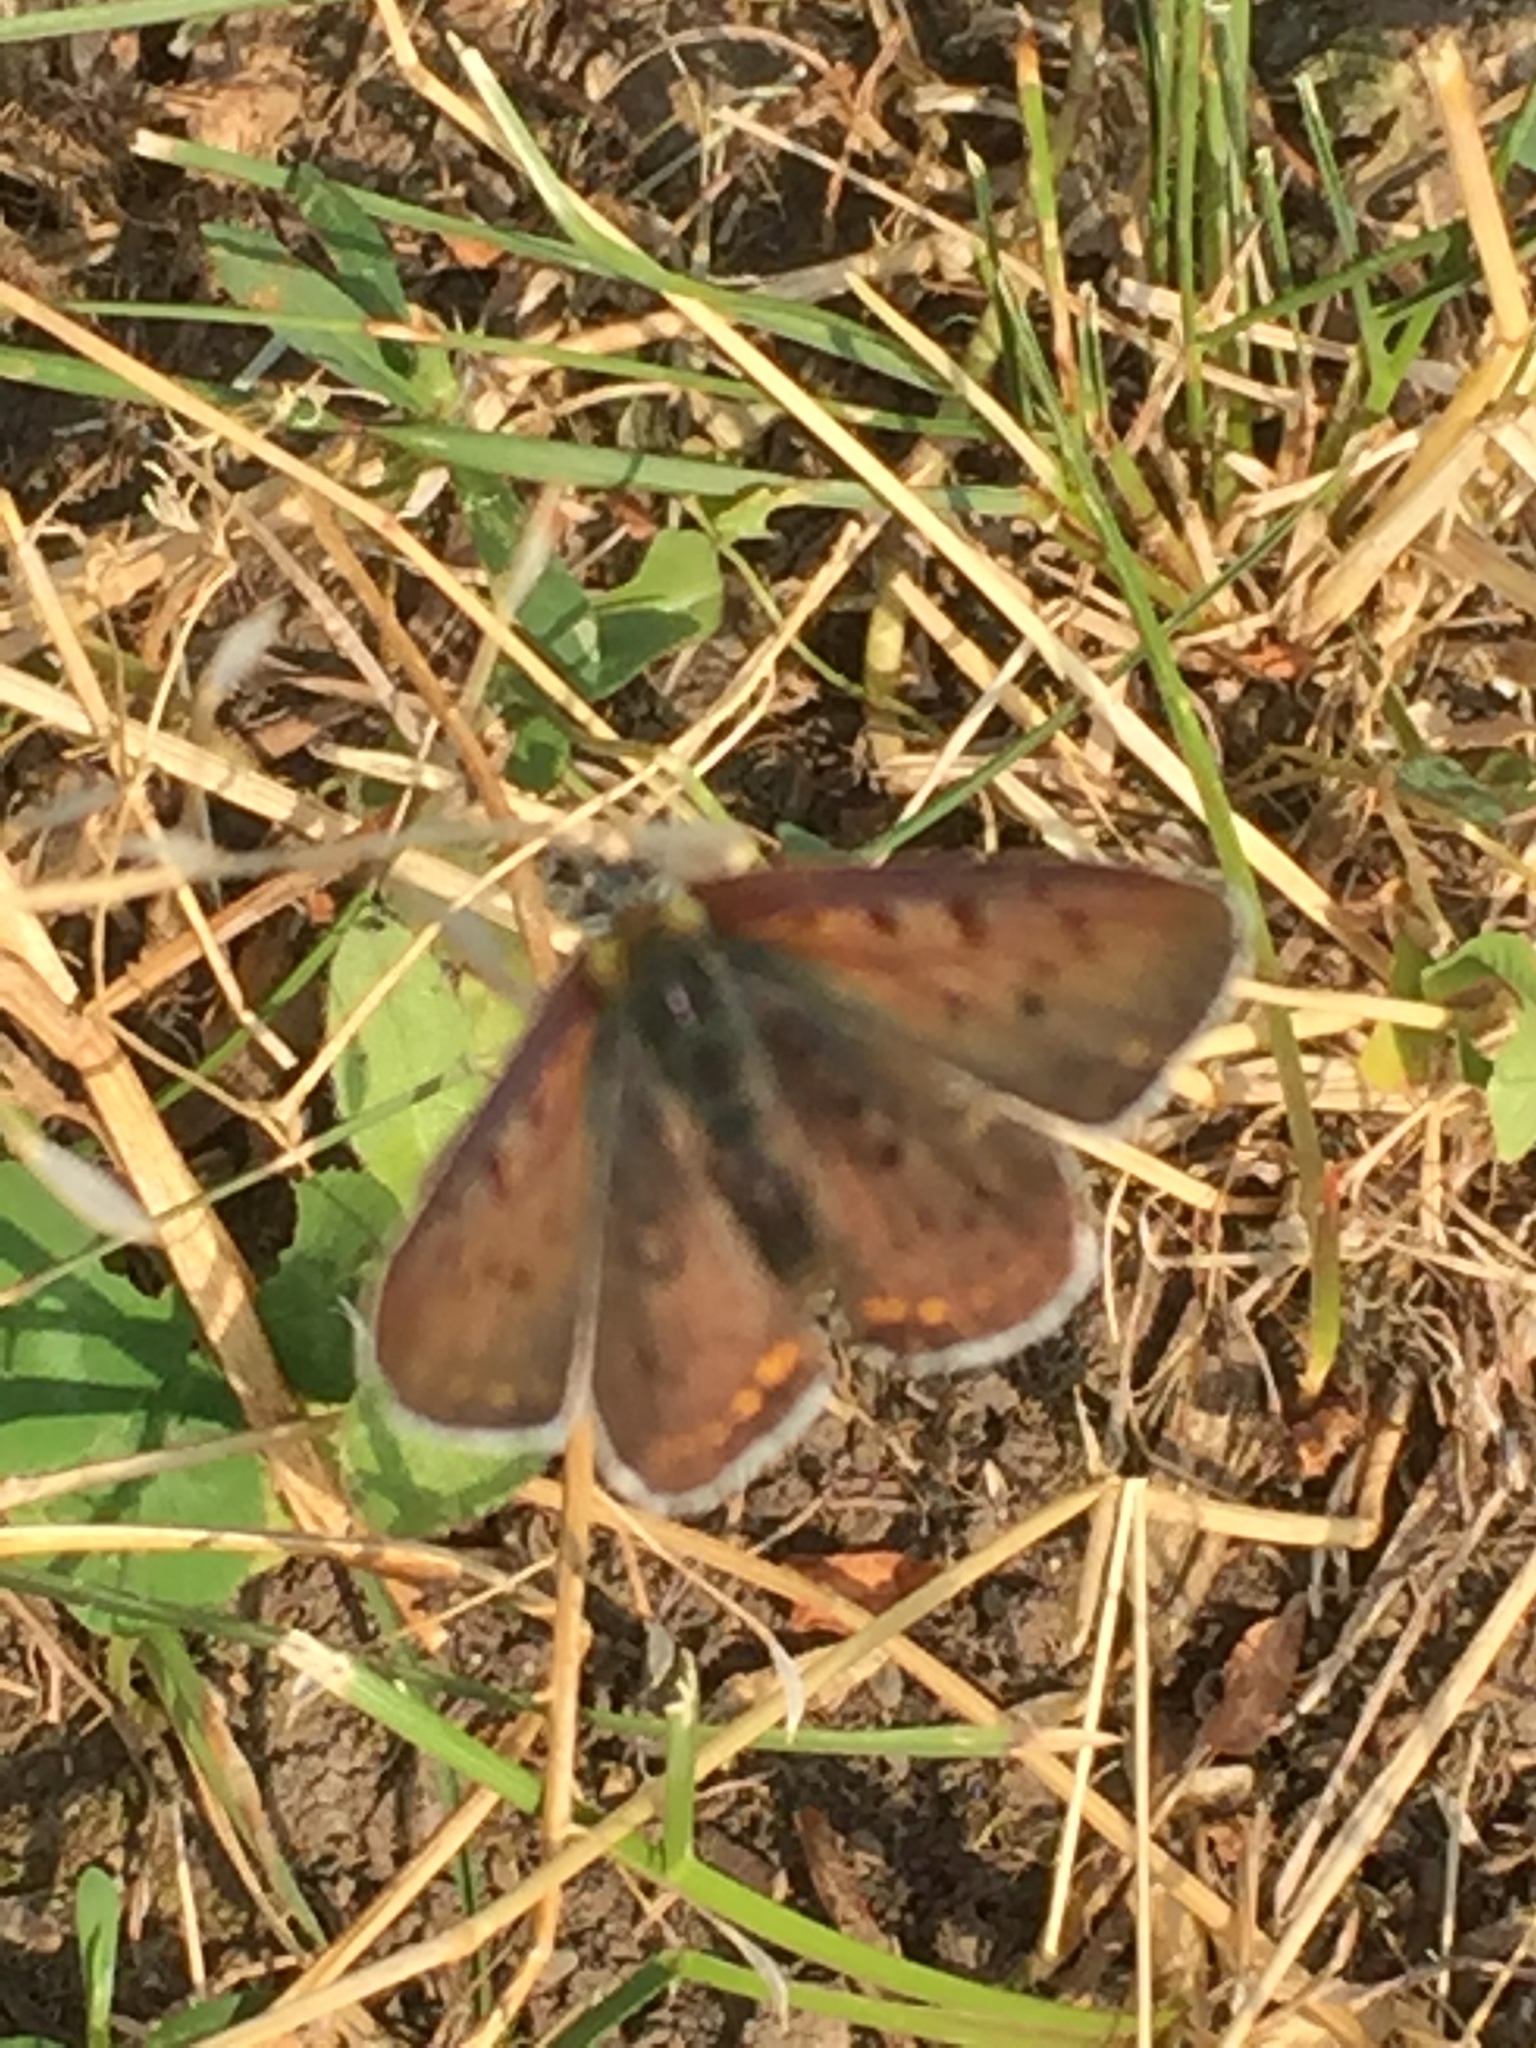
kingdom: Animalia
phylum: Arthropoda
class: Insecta
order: Lepidoptera
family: Lycaenidae
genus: Loweia
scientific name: Loweia tityrus
